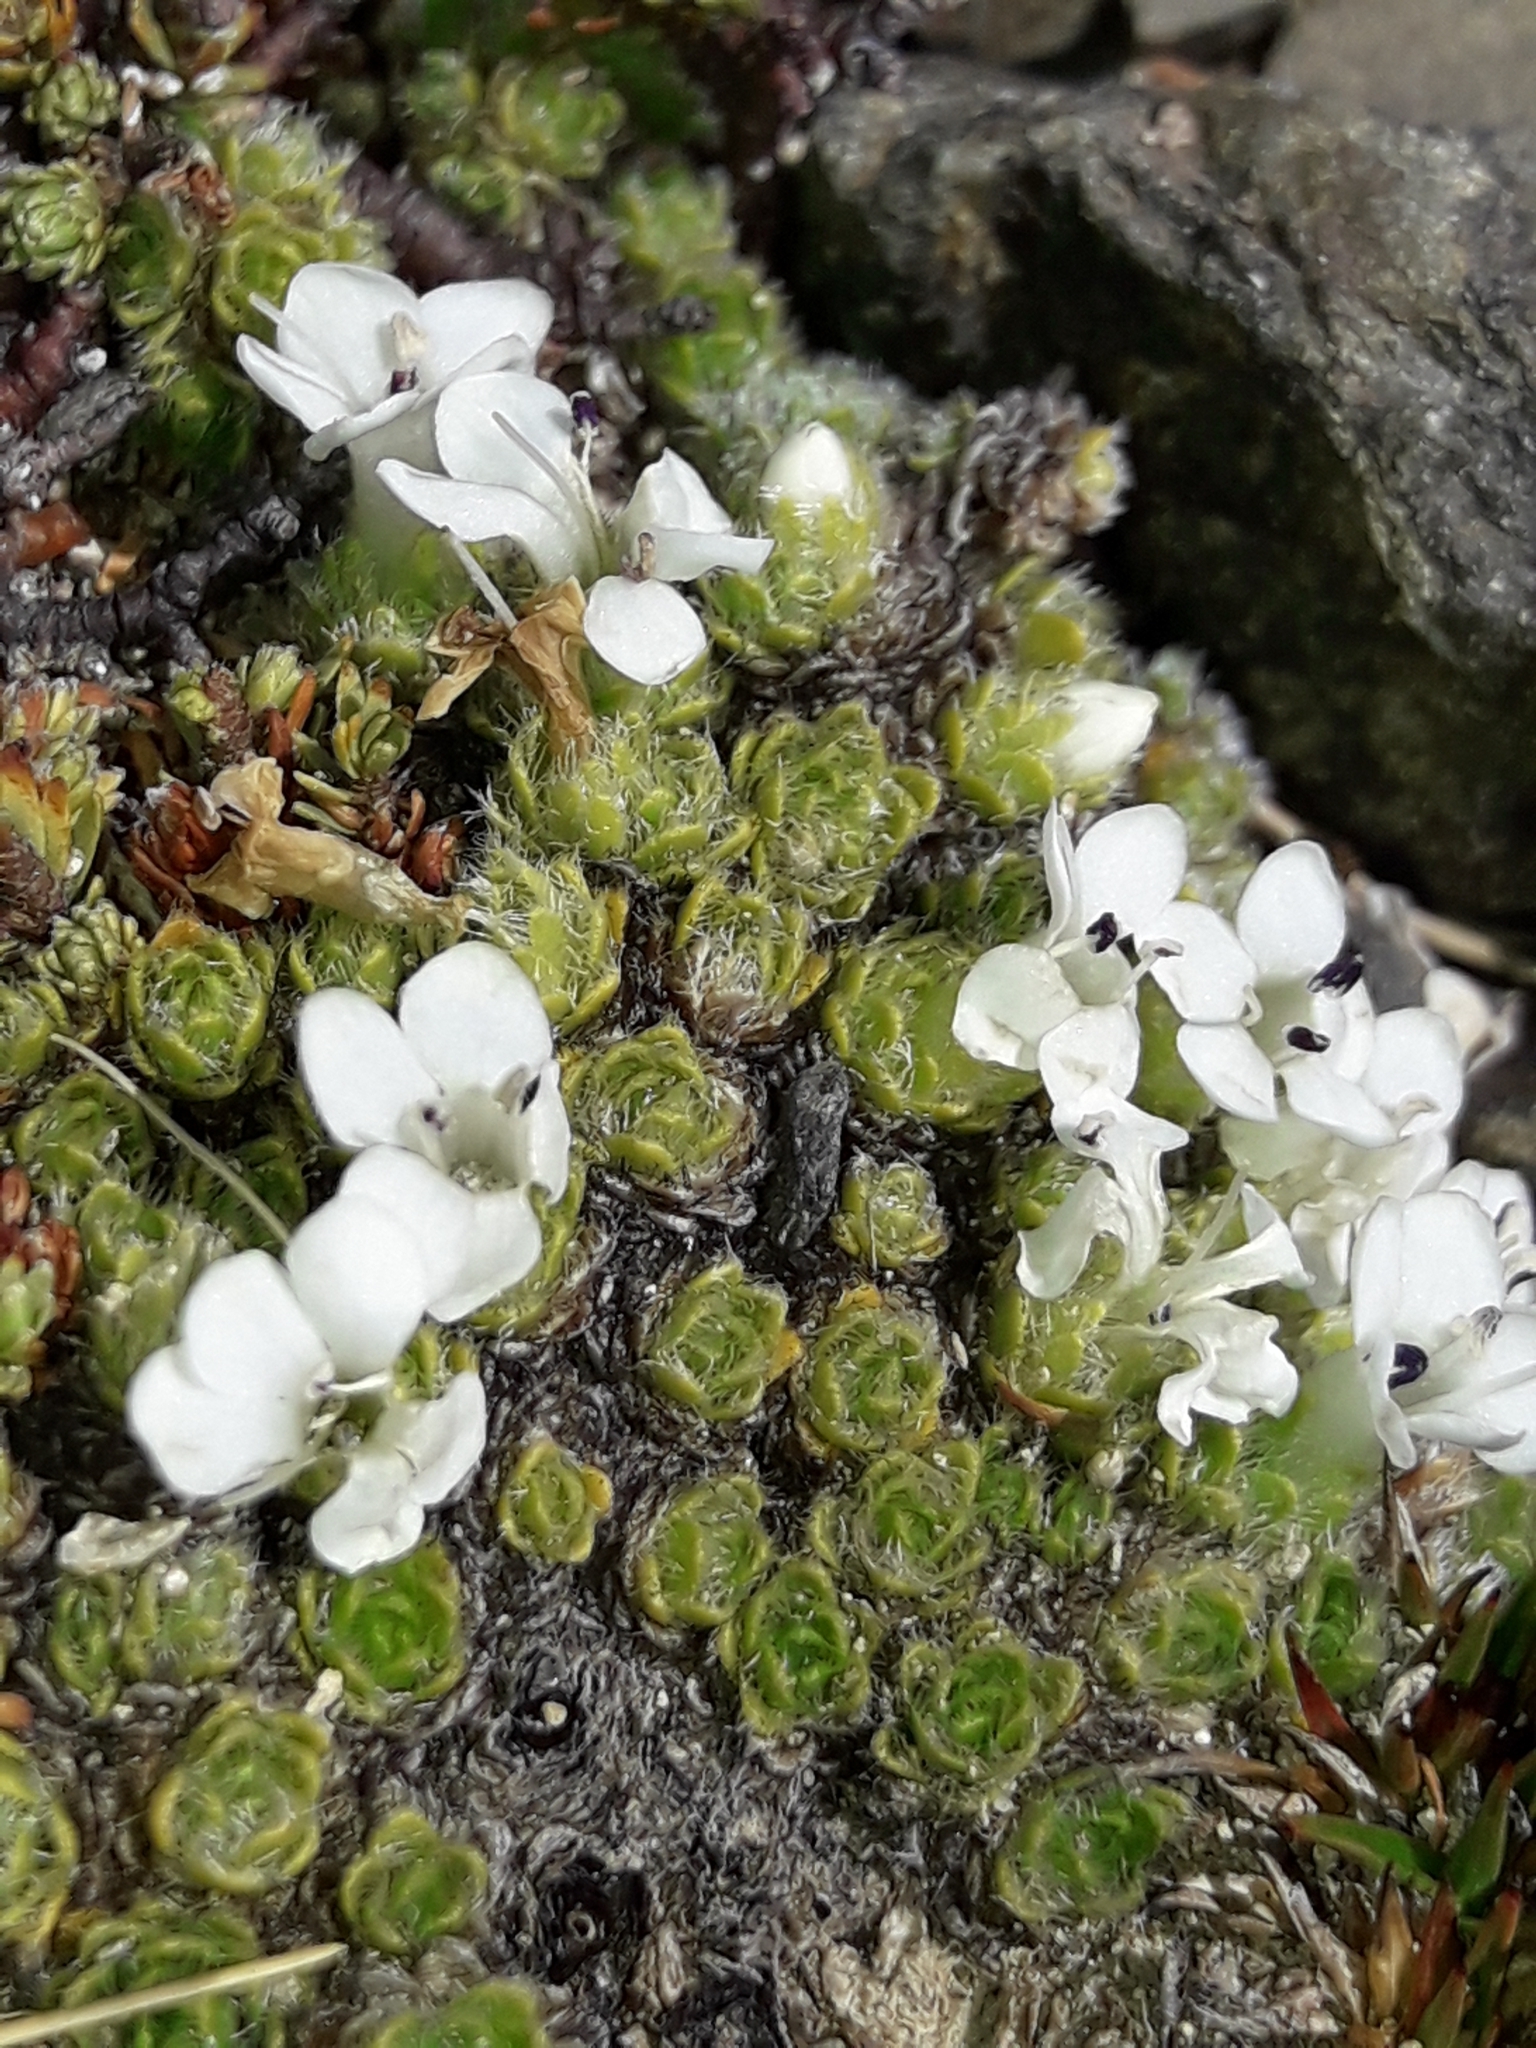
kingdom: Plantae
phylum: Tracheophyta
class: Magnoliopsida
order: Lamiales
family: Plantaginaceae
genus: Veronica
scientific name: Veronica pulvinaris
